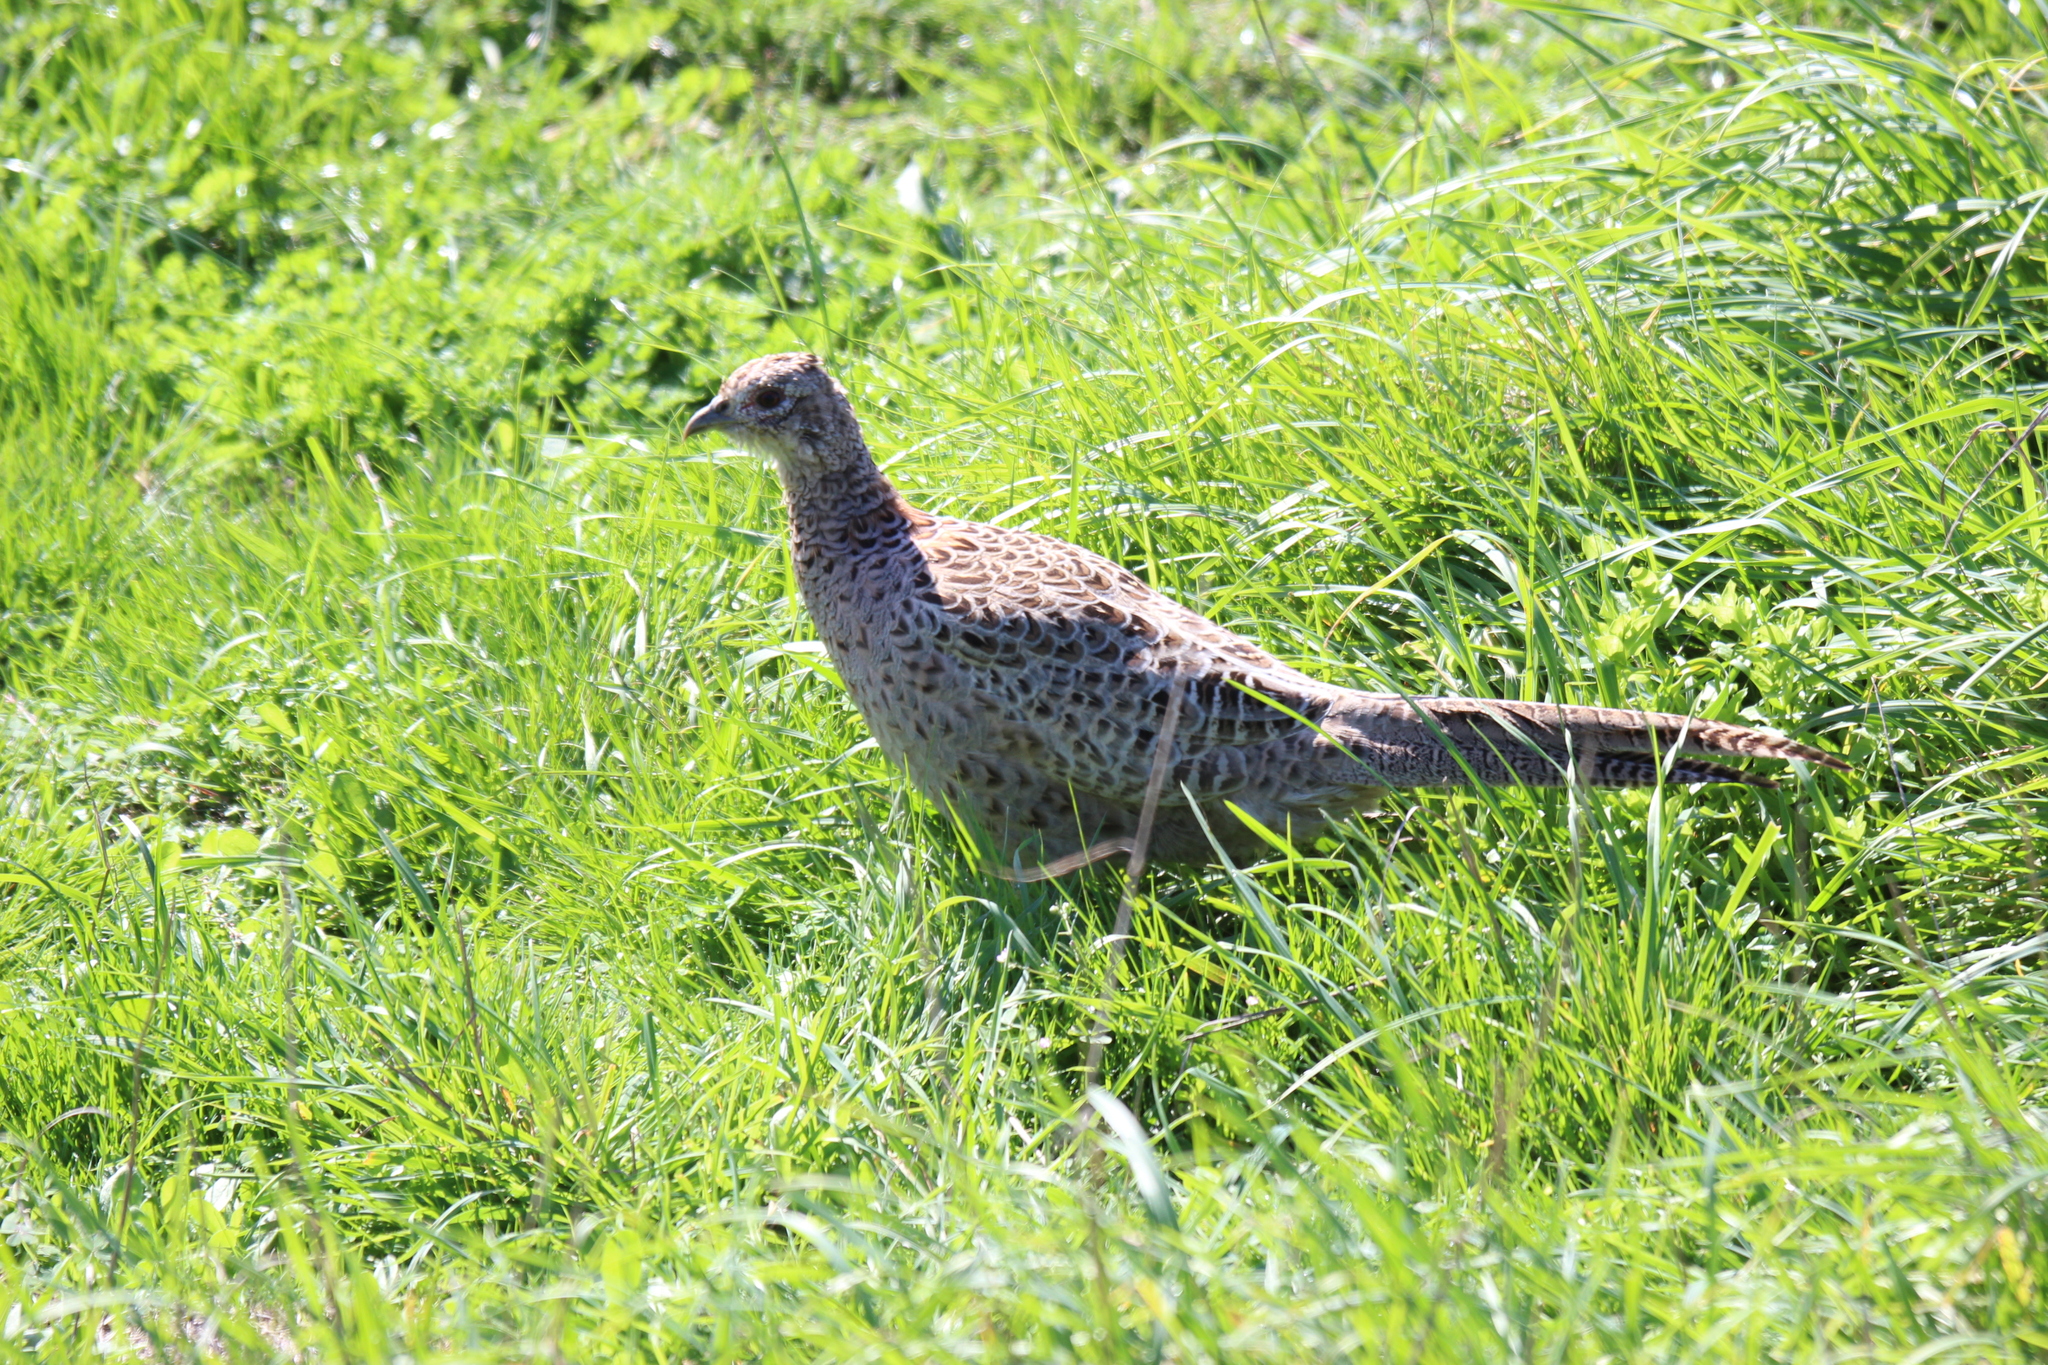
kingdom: Animalia
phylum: Chordata
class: Aves
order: Galliformes
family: Phasianidae
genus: Phasianus
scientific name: Phasianus colchicus
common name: Common pheasant
